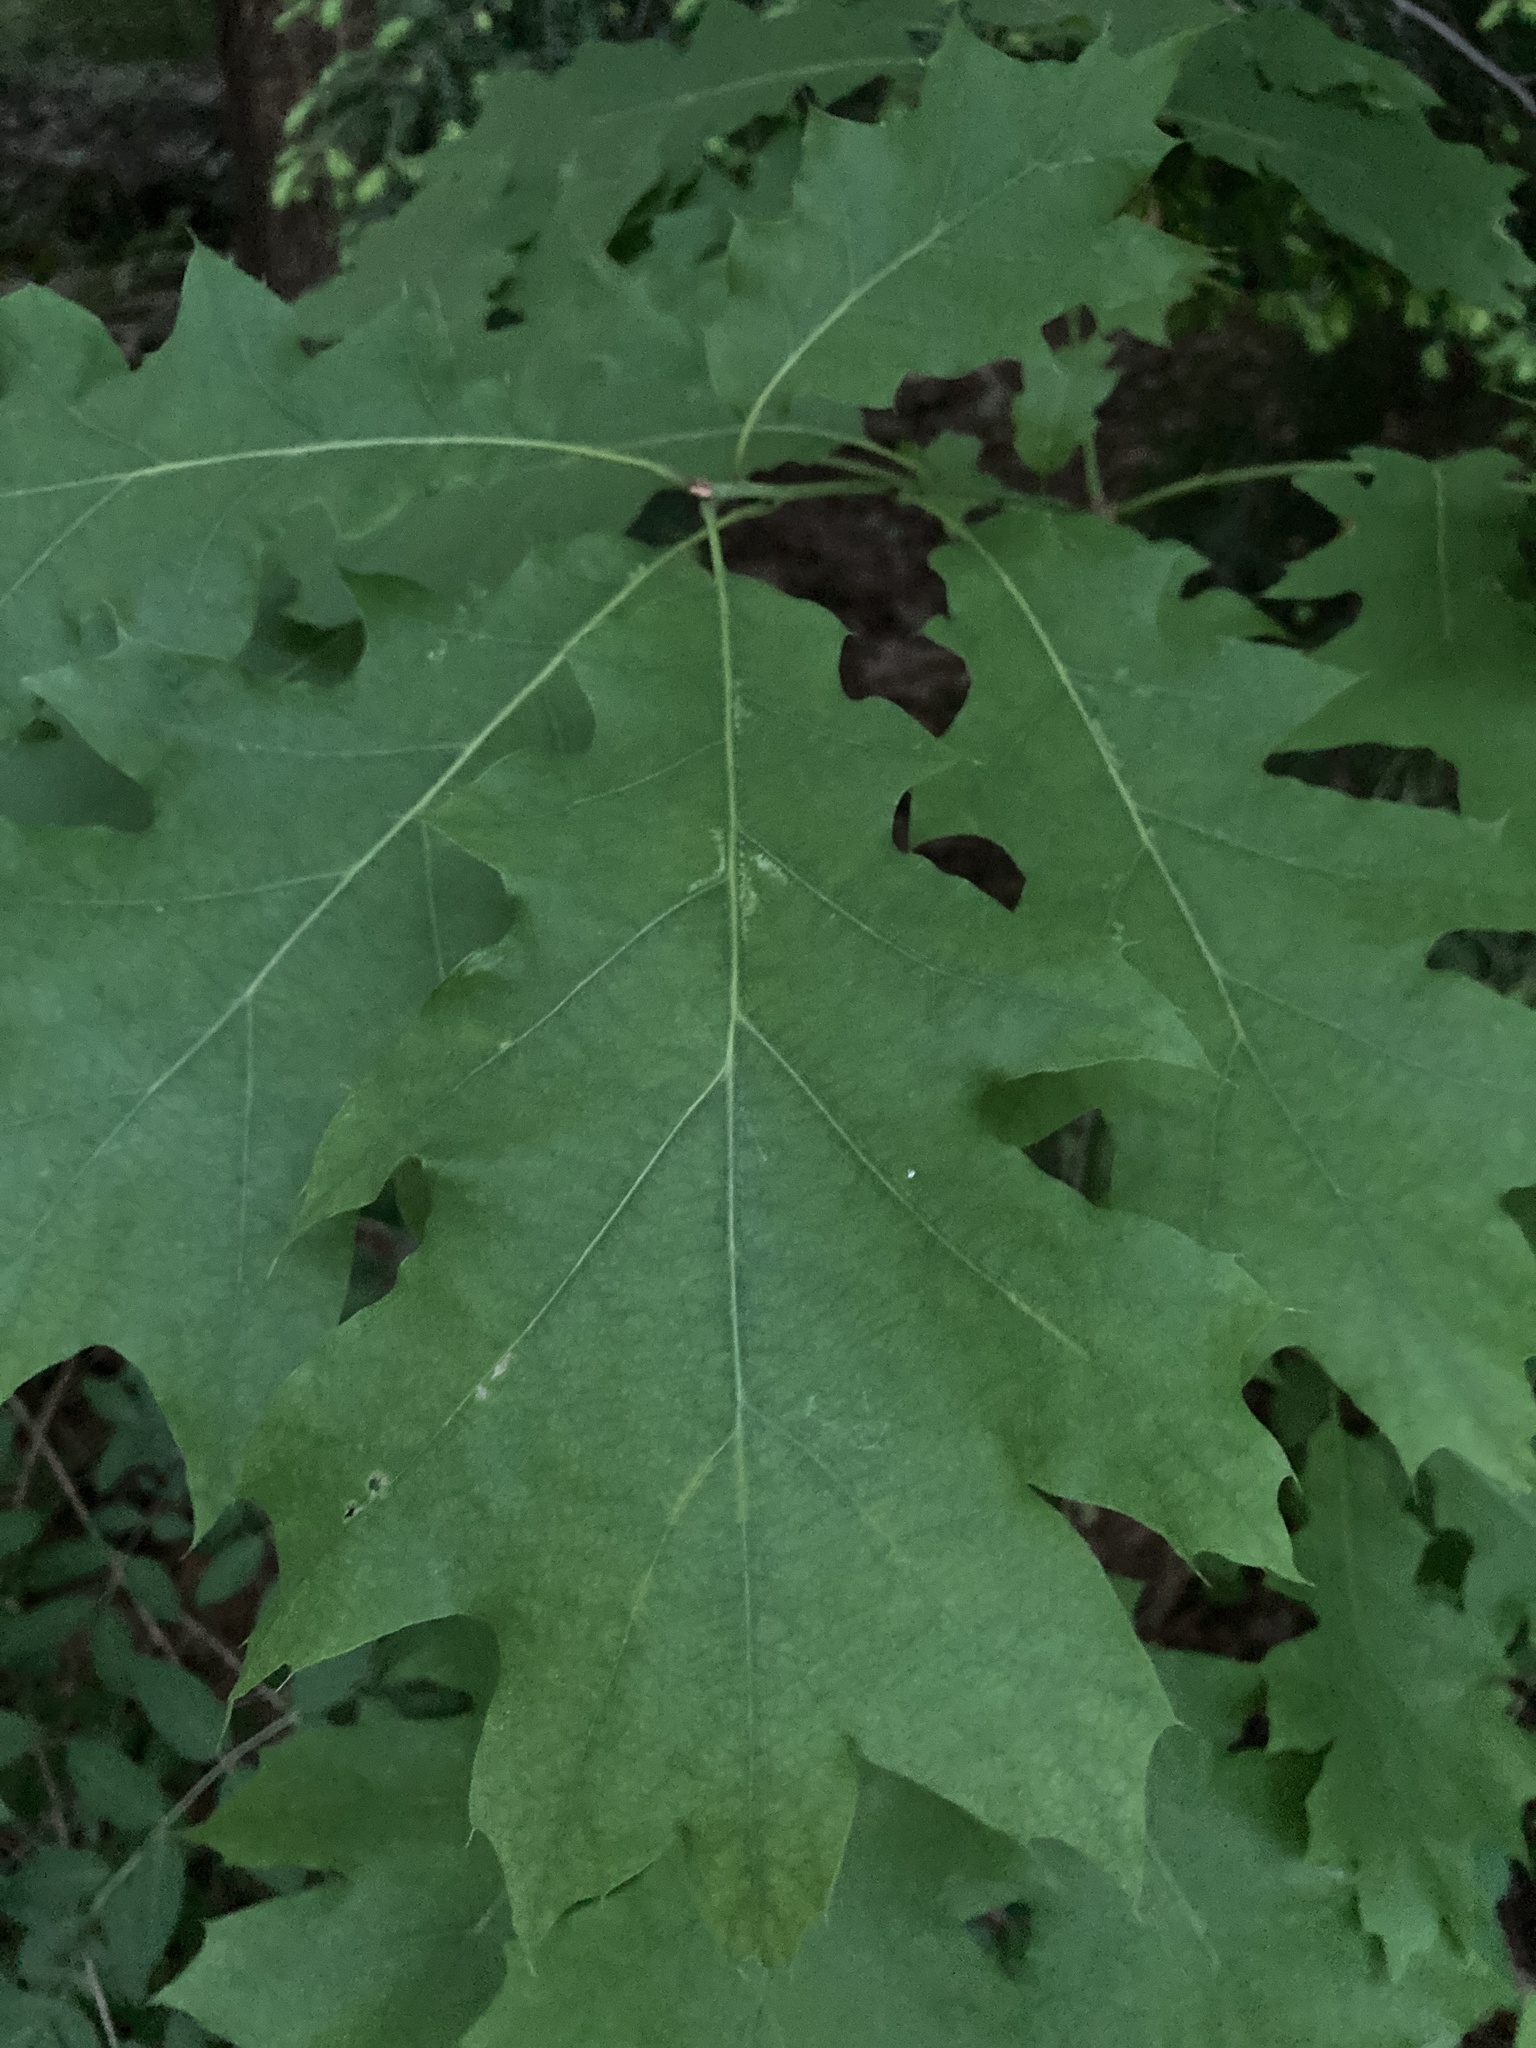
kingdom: Plantae
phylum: Tracheophyta
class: Magnoliopsida
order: Fagales
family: Fagaceae
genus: Quercus
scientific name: Quercus rubra
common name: Red oak
